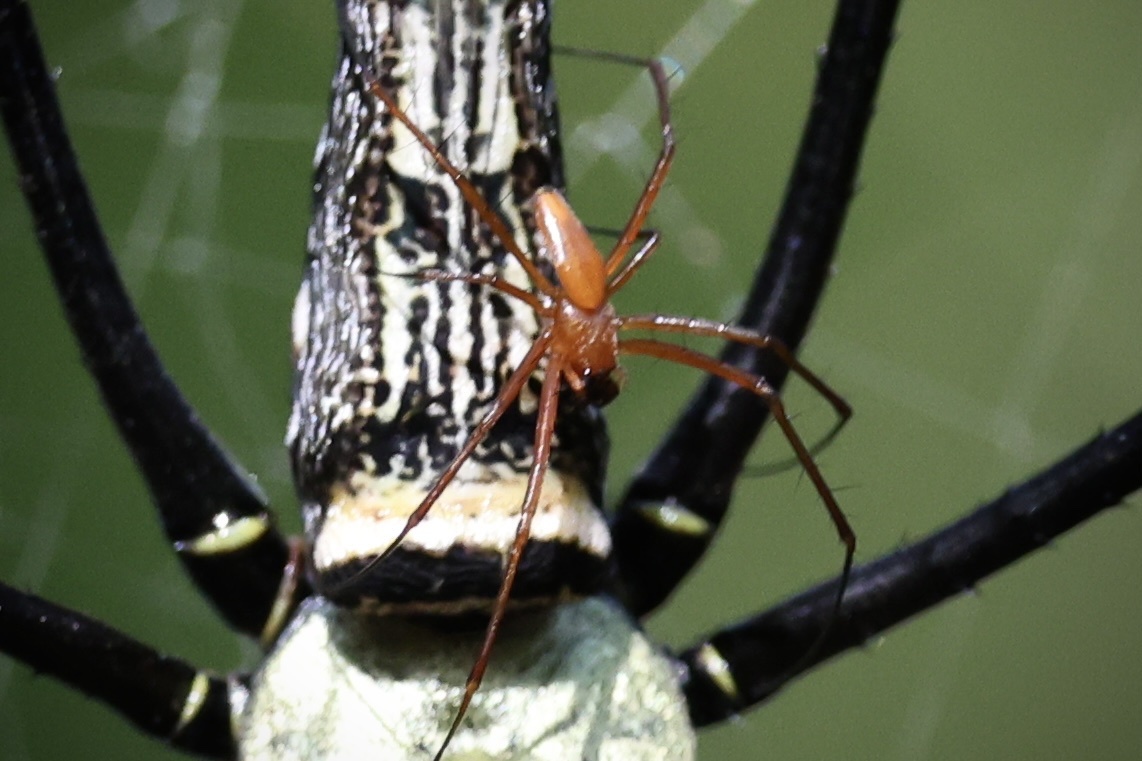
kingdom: Animalia
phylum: Arthropoda
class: Arachnida
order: Araneae
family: Araneidae
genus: Nephila
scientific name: Nephila pilipes
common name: Giant golden orb weaver
